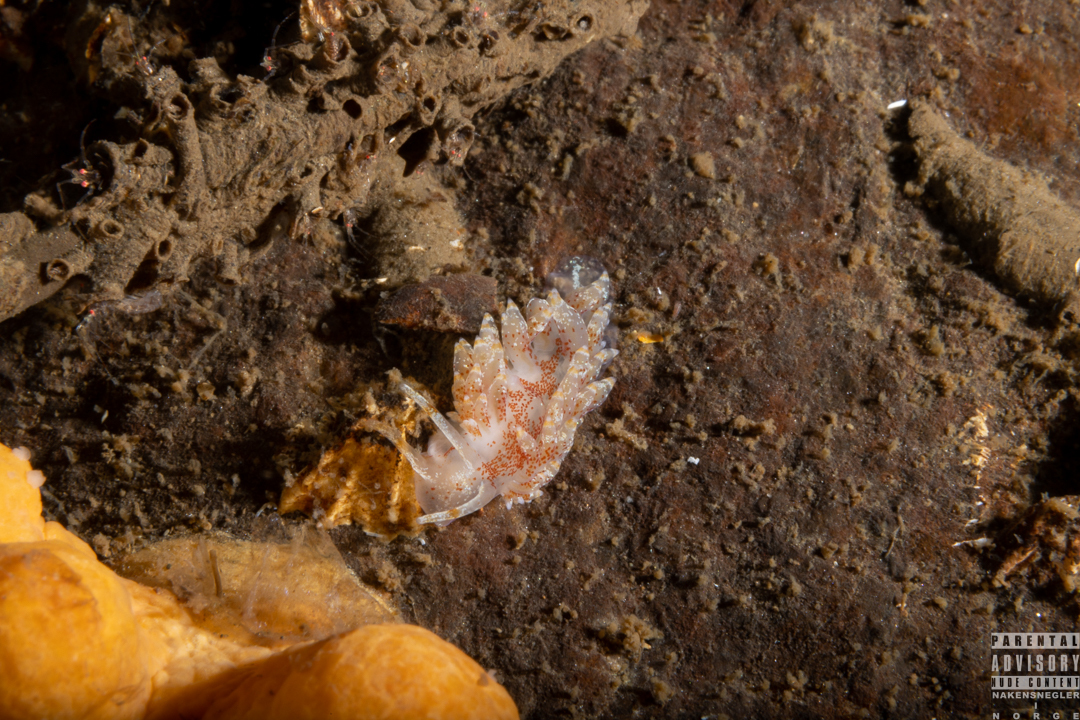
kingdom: Animalia
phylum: Mollusca
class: Gastropoda
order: Nudibranchia
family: Eubranchidae
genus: Amphorina
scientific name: Amphorina pallida
